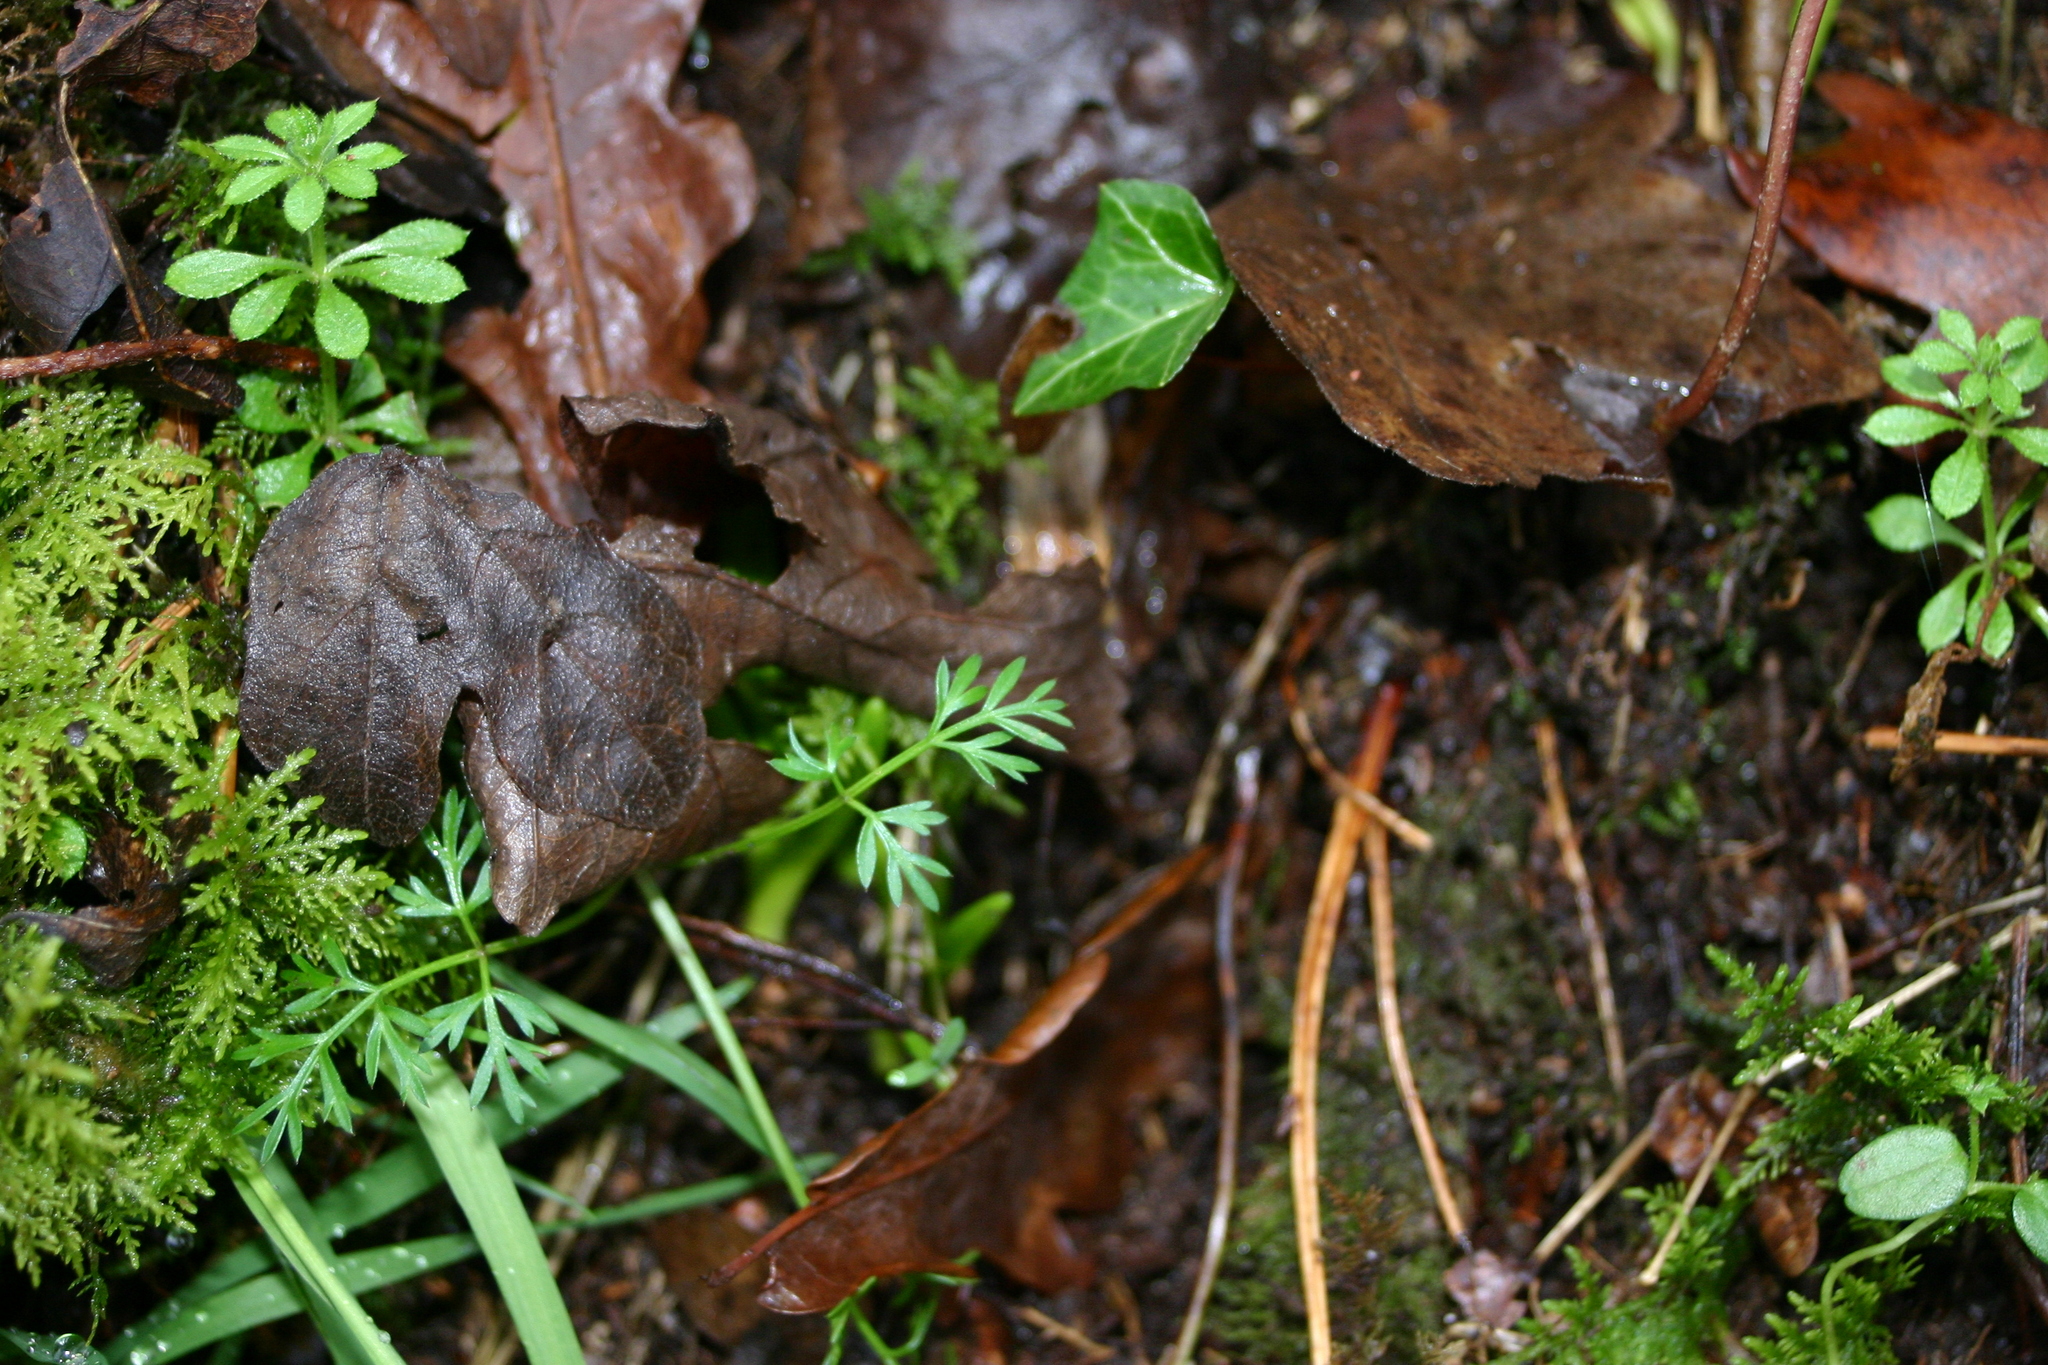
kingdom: Plantae
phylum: Tracheophyta
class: Magnoliopsida
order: Apiales
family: Apiaceae
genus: Conopodium
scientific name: Conopodium majus
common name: Pignut
